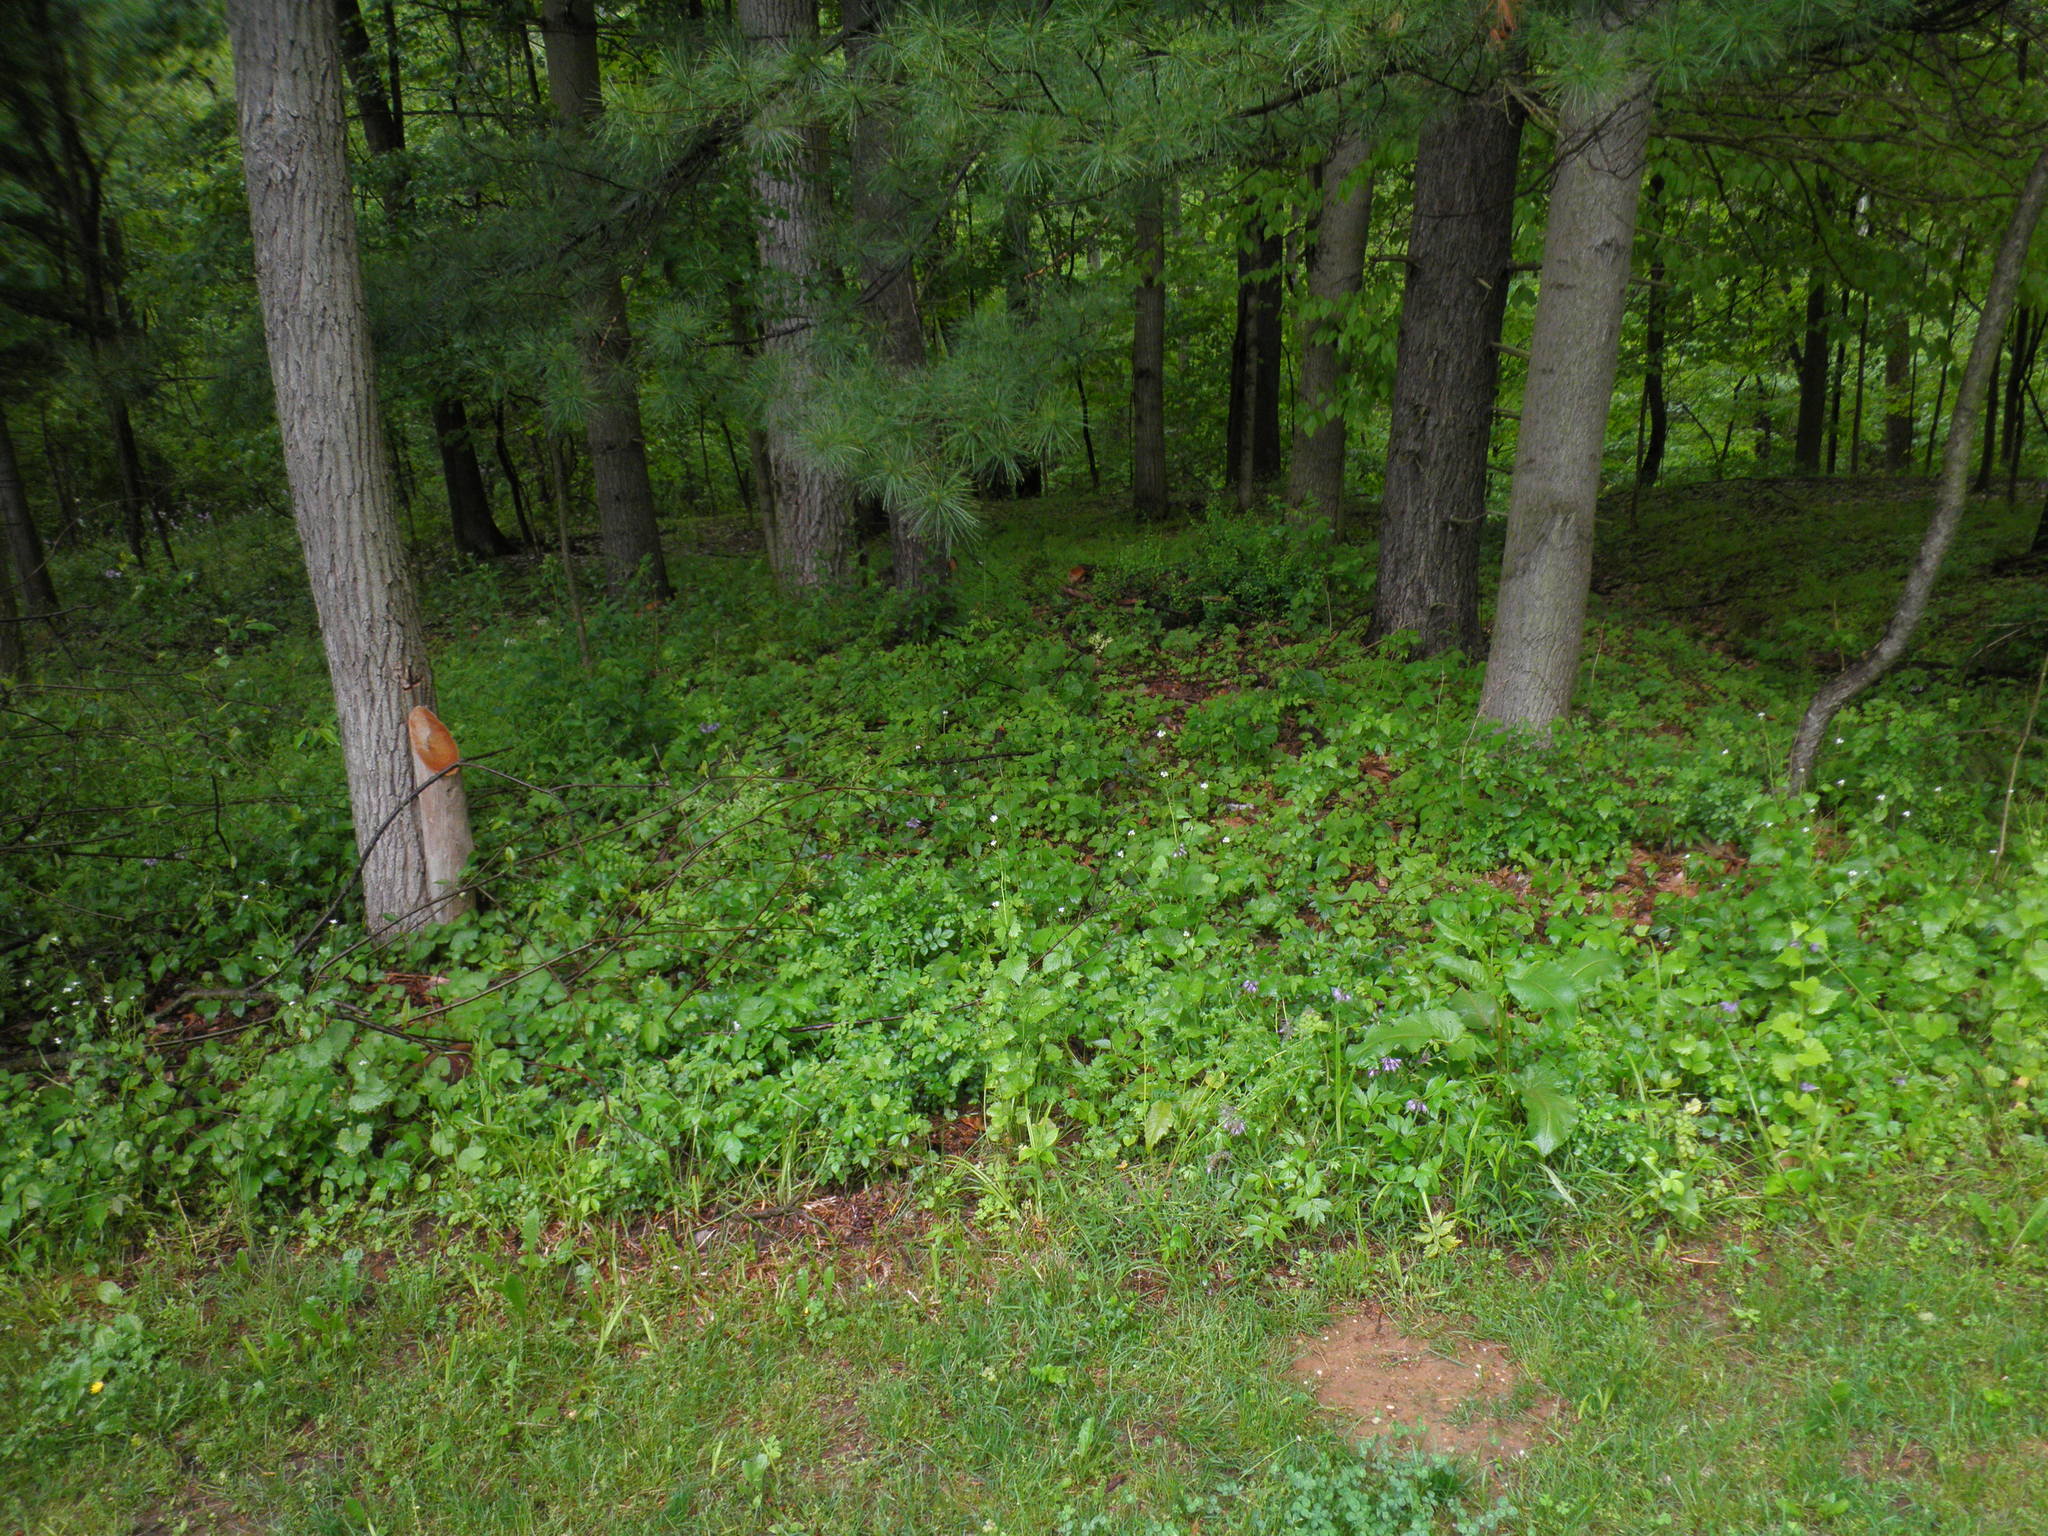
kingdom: Plantae
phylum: Tracheophyta
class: Magnoliopsida
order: Boraginales
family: Hydrophyllaceae
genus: Phacelia
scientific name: Phacelia purshii
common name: Miami-mist
